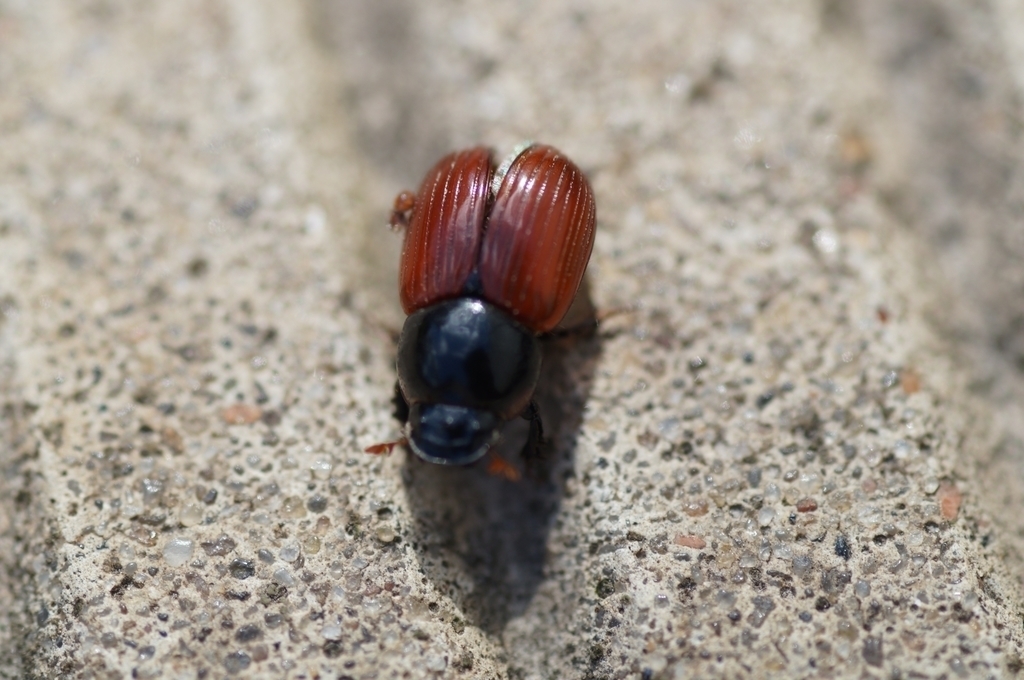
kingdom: Animalia
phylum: Arthropoda
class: Insecta
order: Coleoptera
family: Scarabaeidae
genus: Aphodius
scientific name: Aphodius fimetarius
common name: Common dung beetle
